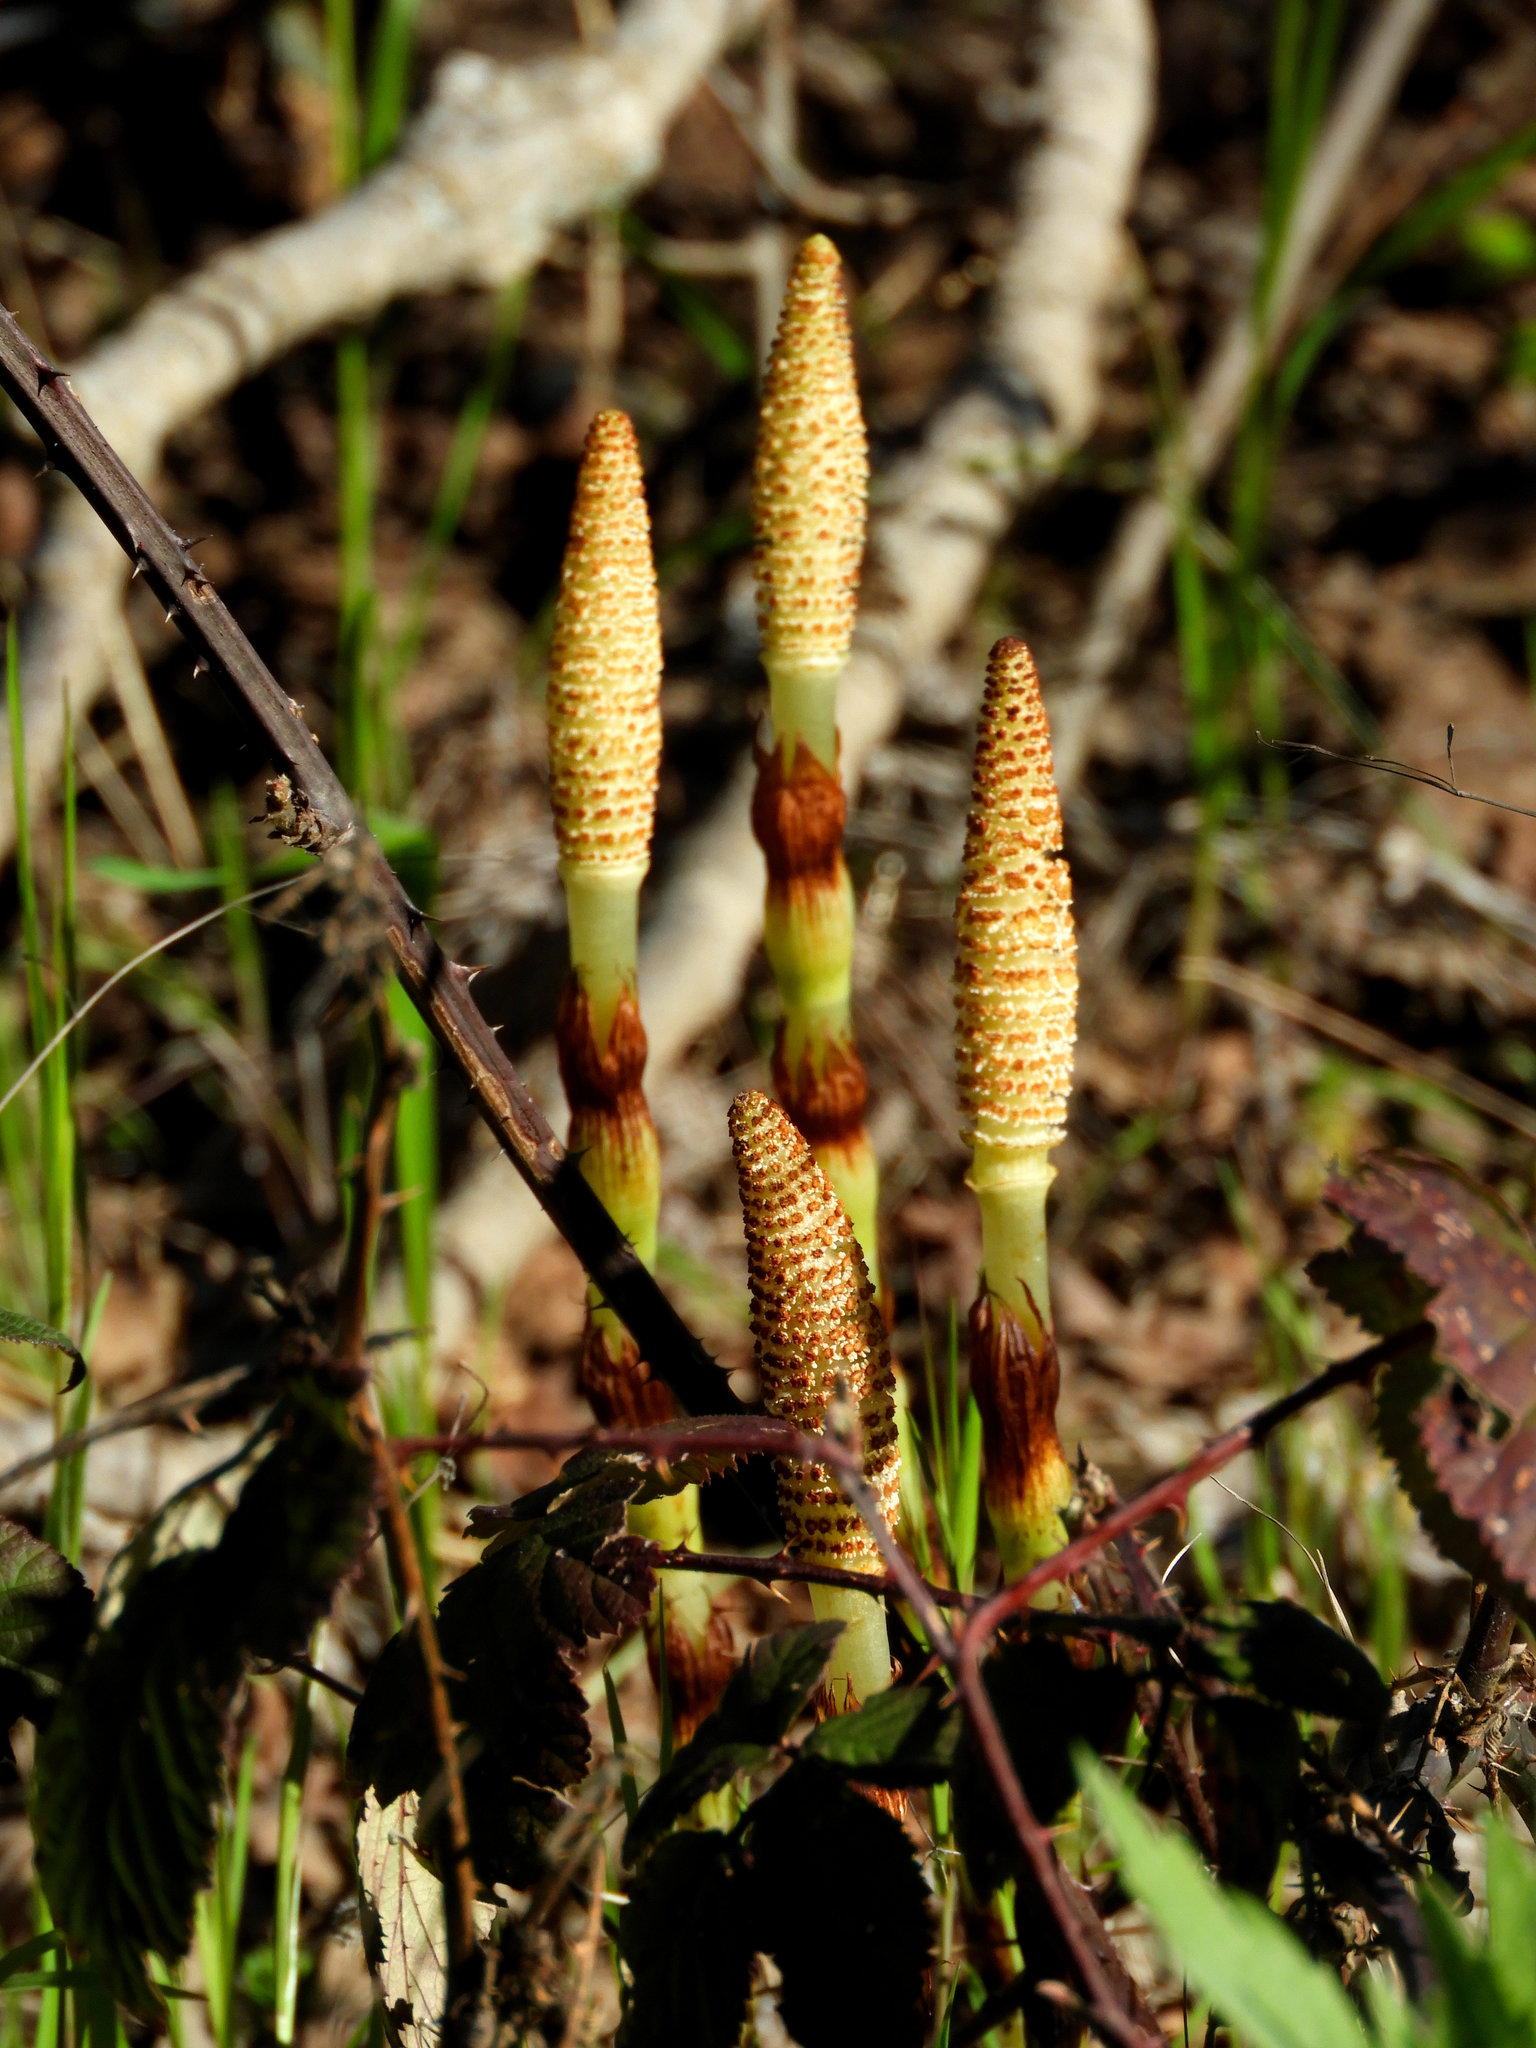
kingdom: Plantae
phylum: Tracheophyta
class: Polypodiopsida
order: Equisetales
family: Equisetaceae
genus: Equisetum
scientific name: Equisetum braunii
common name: Braun's horsetail
